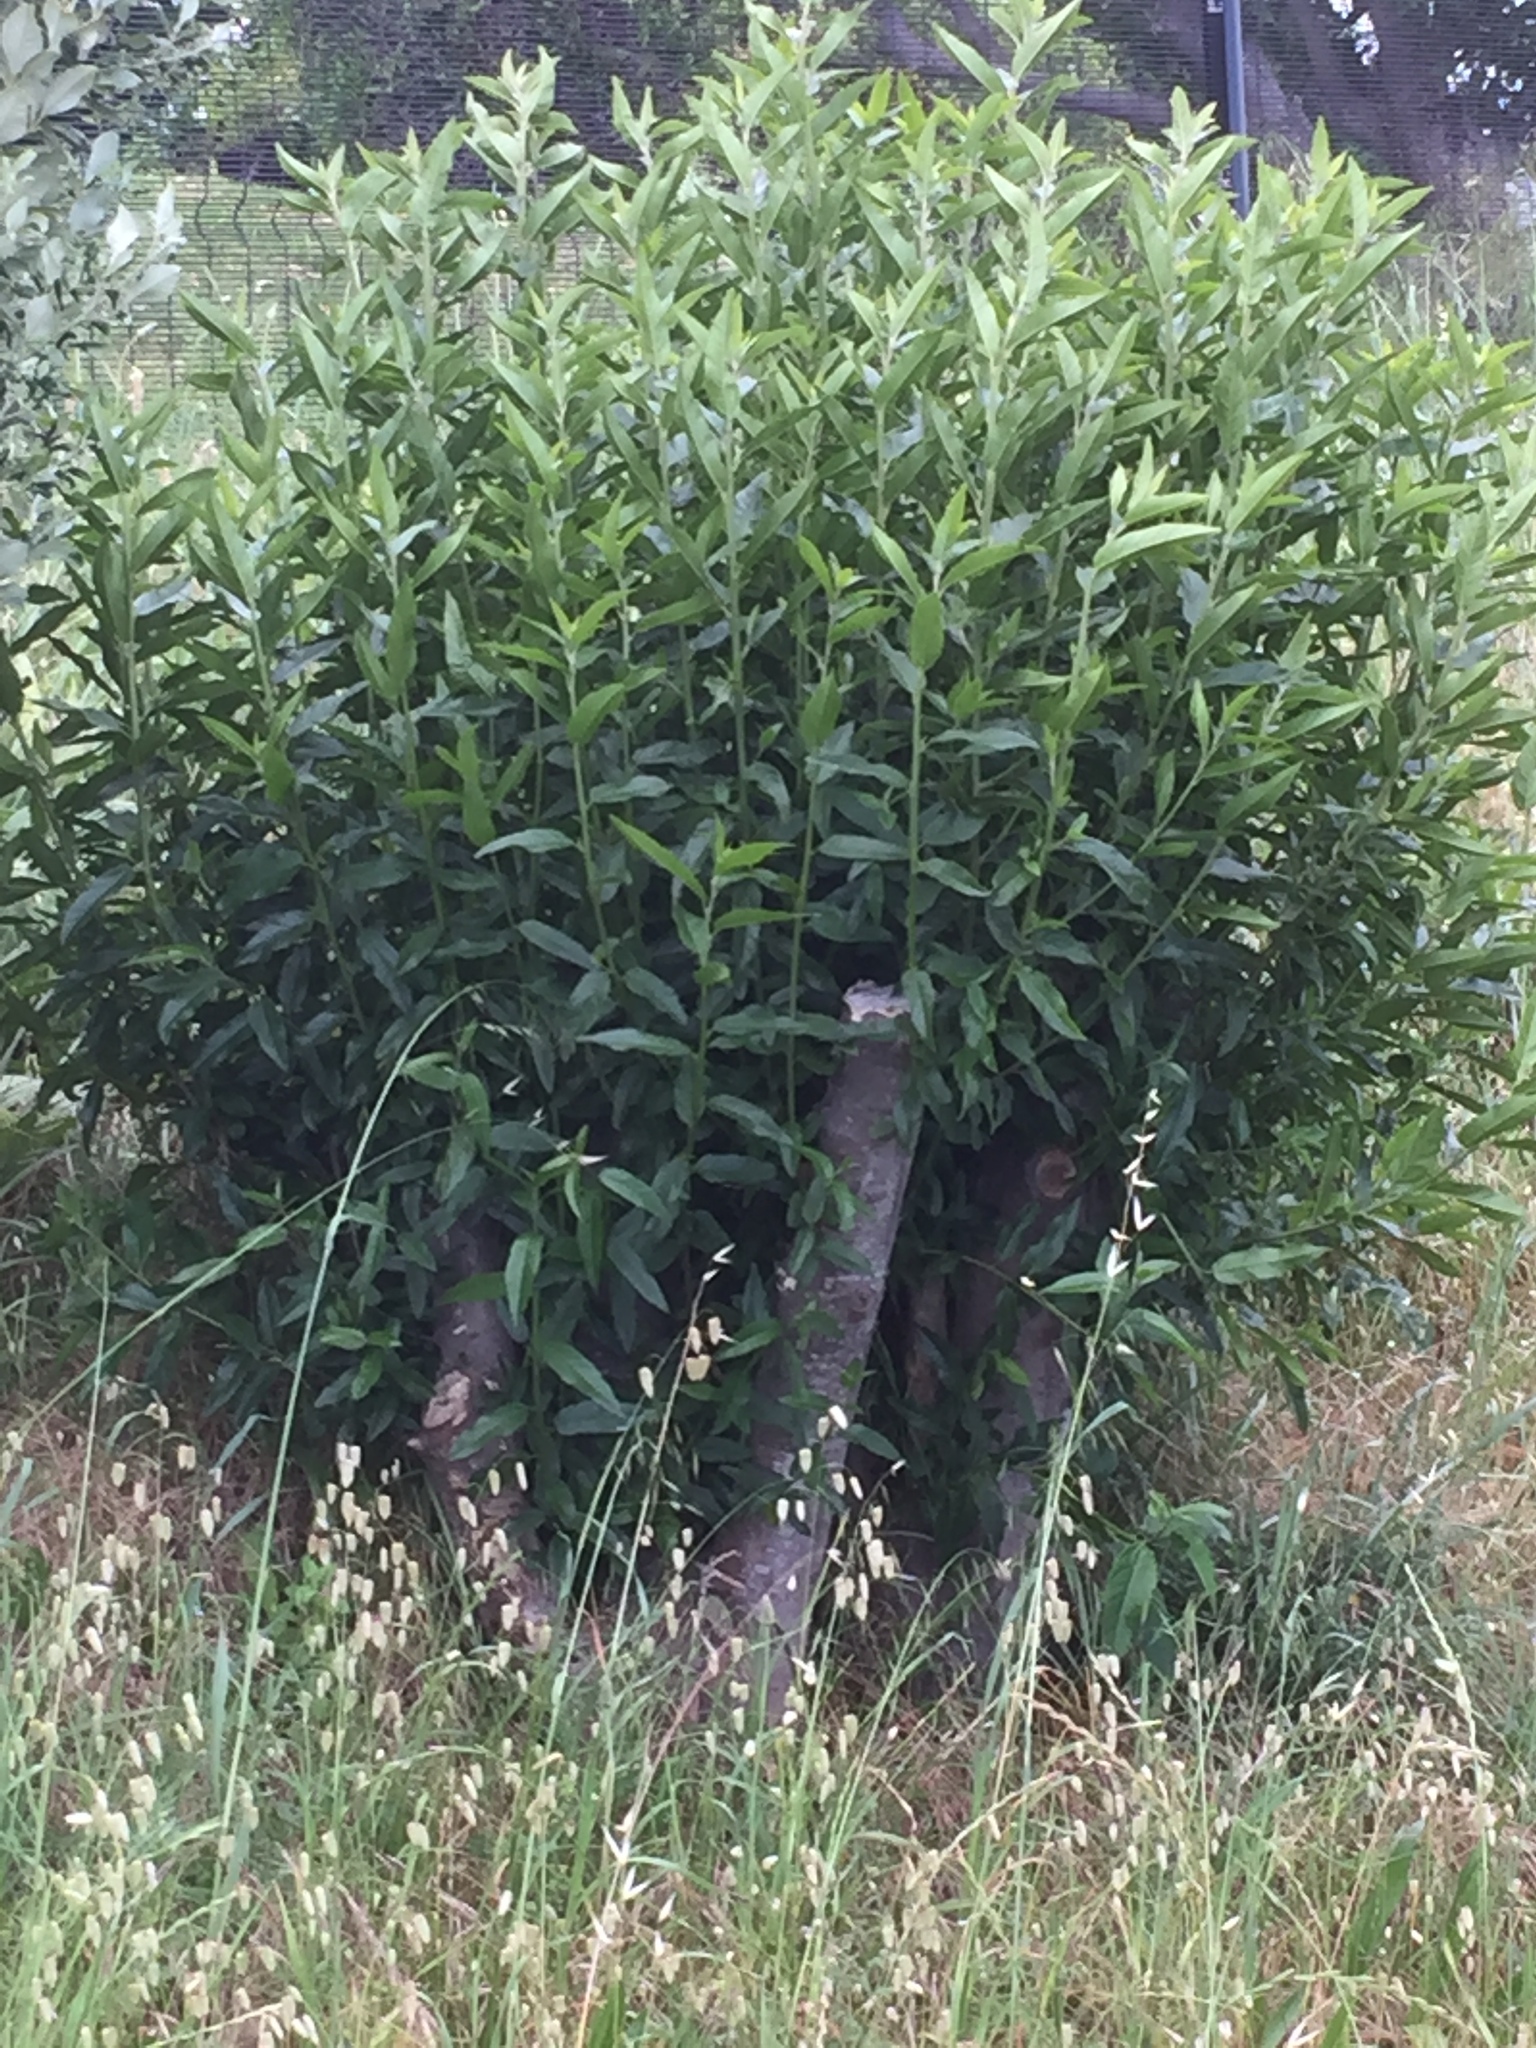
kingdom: Plantae
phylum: Tracheophyta
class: Magnoliopsida
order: Malpighiales
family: Achariaceae
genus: Kiggelaria
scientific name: Kiggelaria africana
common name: Wild peach
